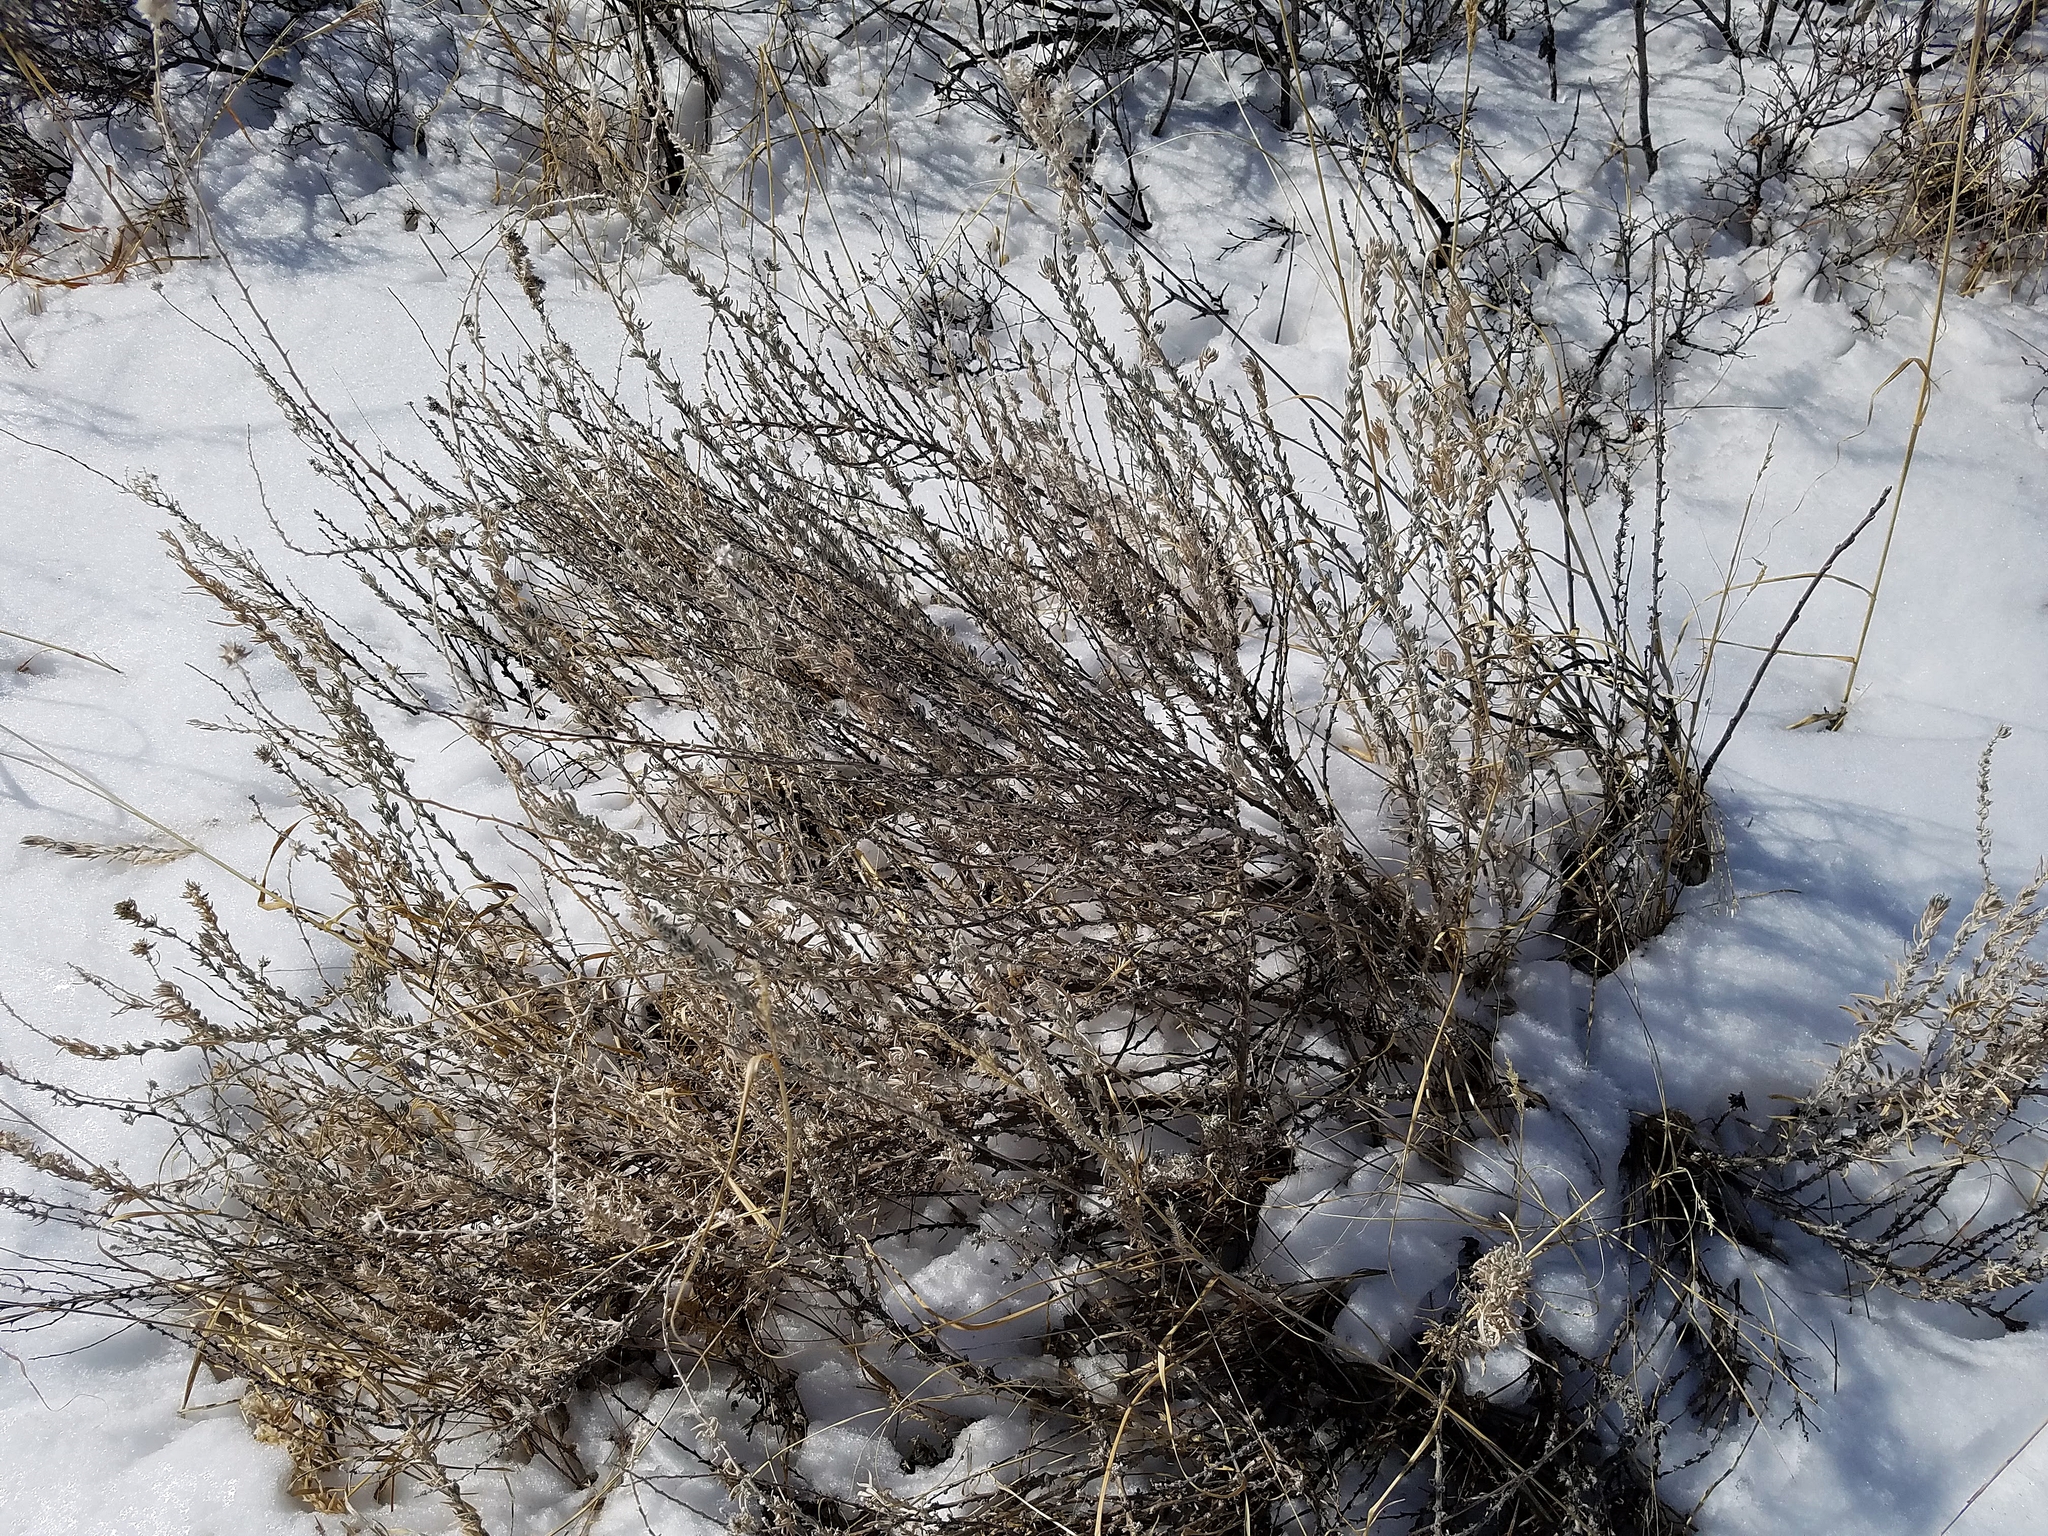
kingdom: Plantae
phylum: Tracheophyta
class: Magnoliopsida
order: Caryophyllales
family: Amaranthaceae
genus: Krascheninnikovia
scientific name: Krascheninnikovia lanata
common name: Winterfat
